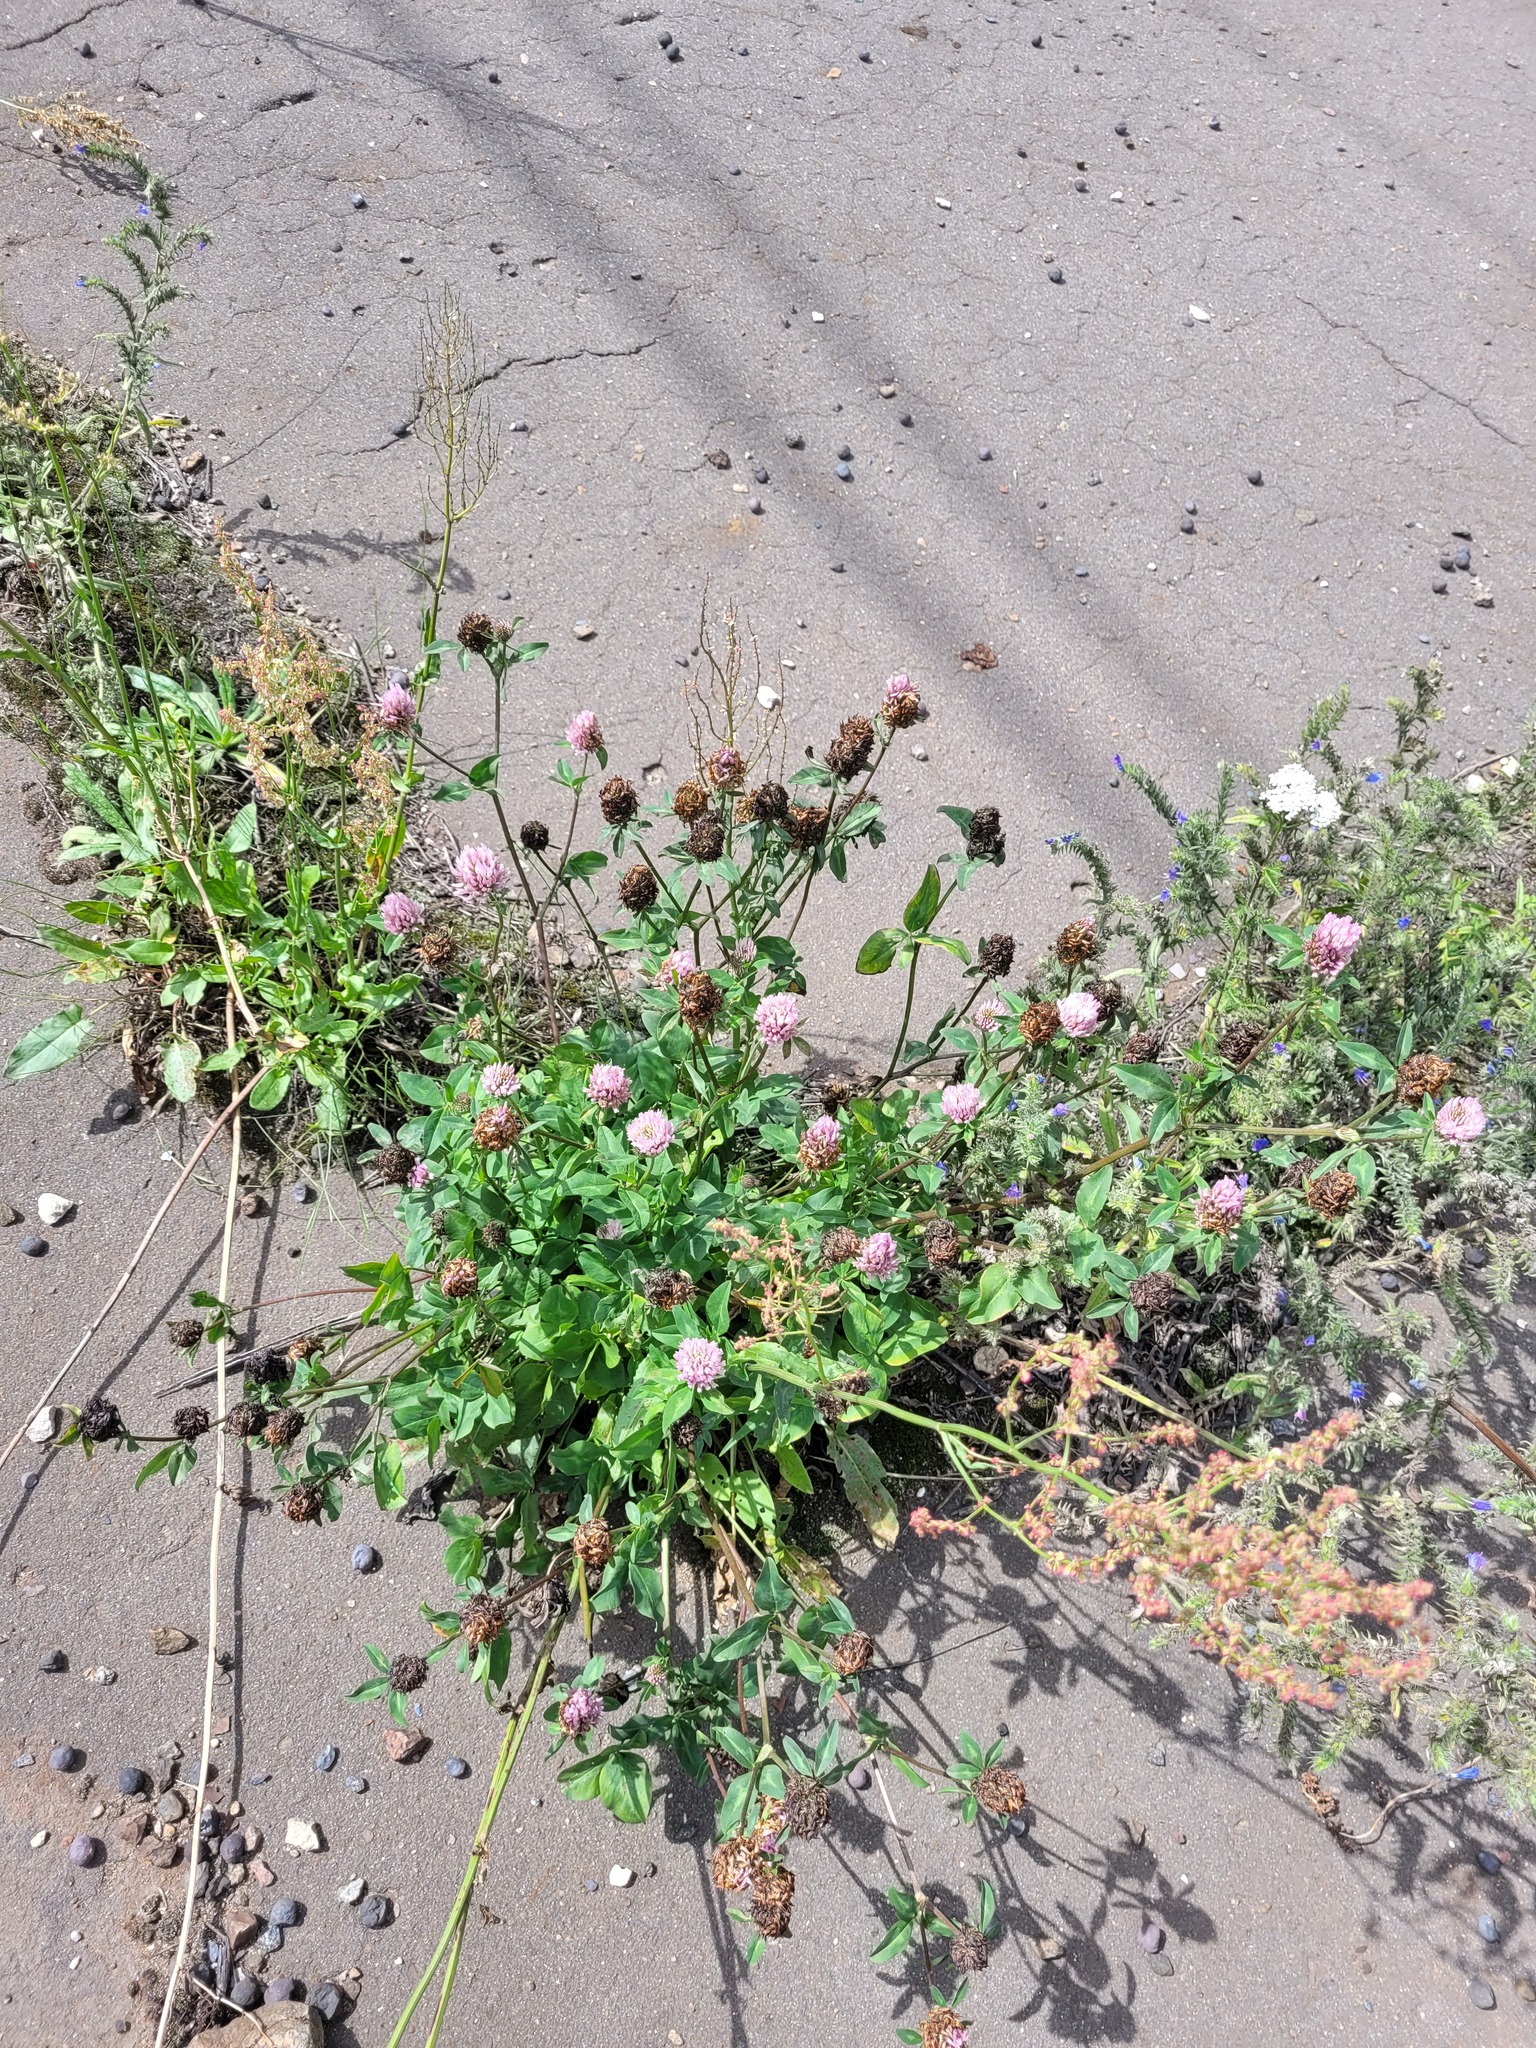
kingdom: Plantae
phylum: Tracheophyta
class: Magnoliopsida
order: Fabales
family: Fabaceae
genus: Trifolium
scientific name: Trifolium pratense
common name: Red clover
